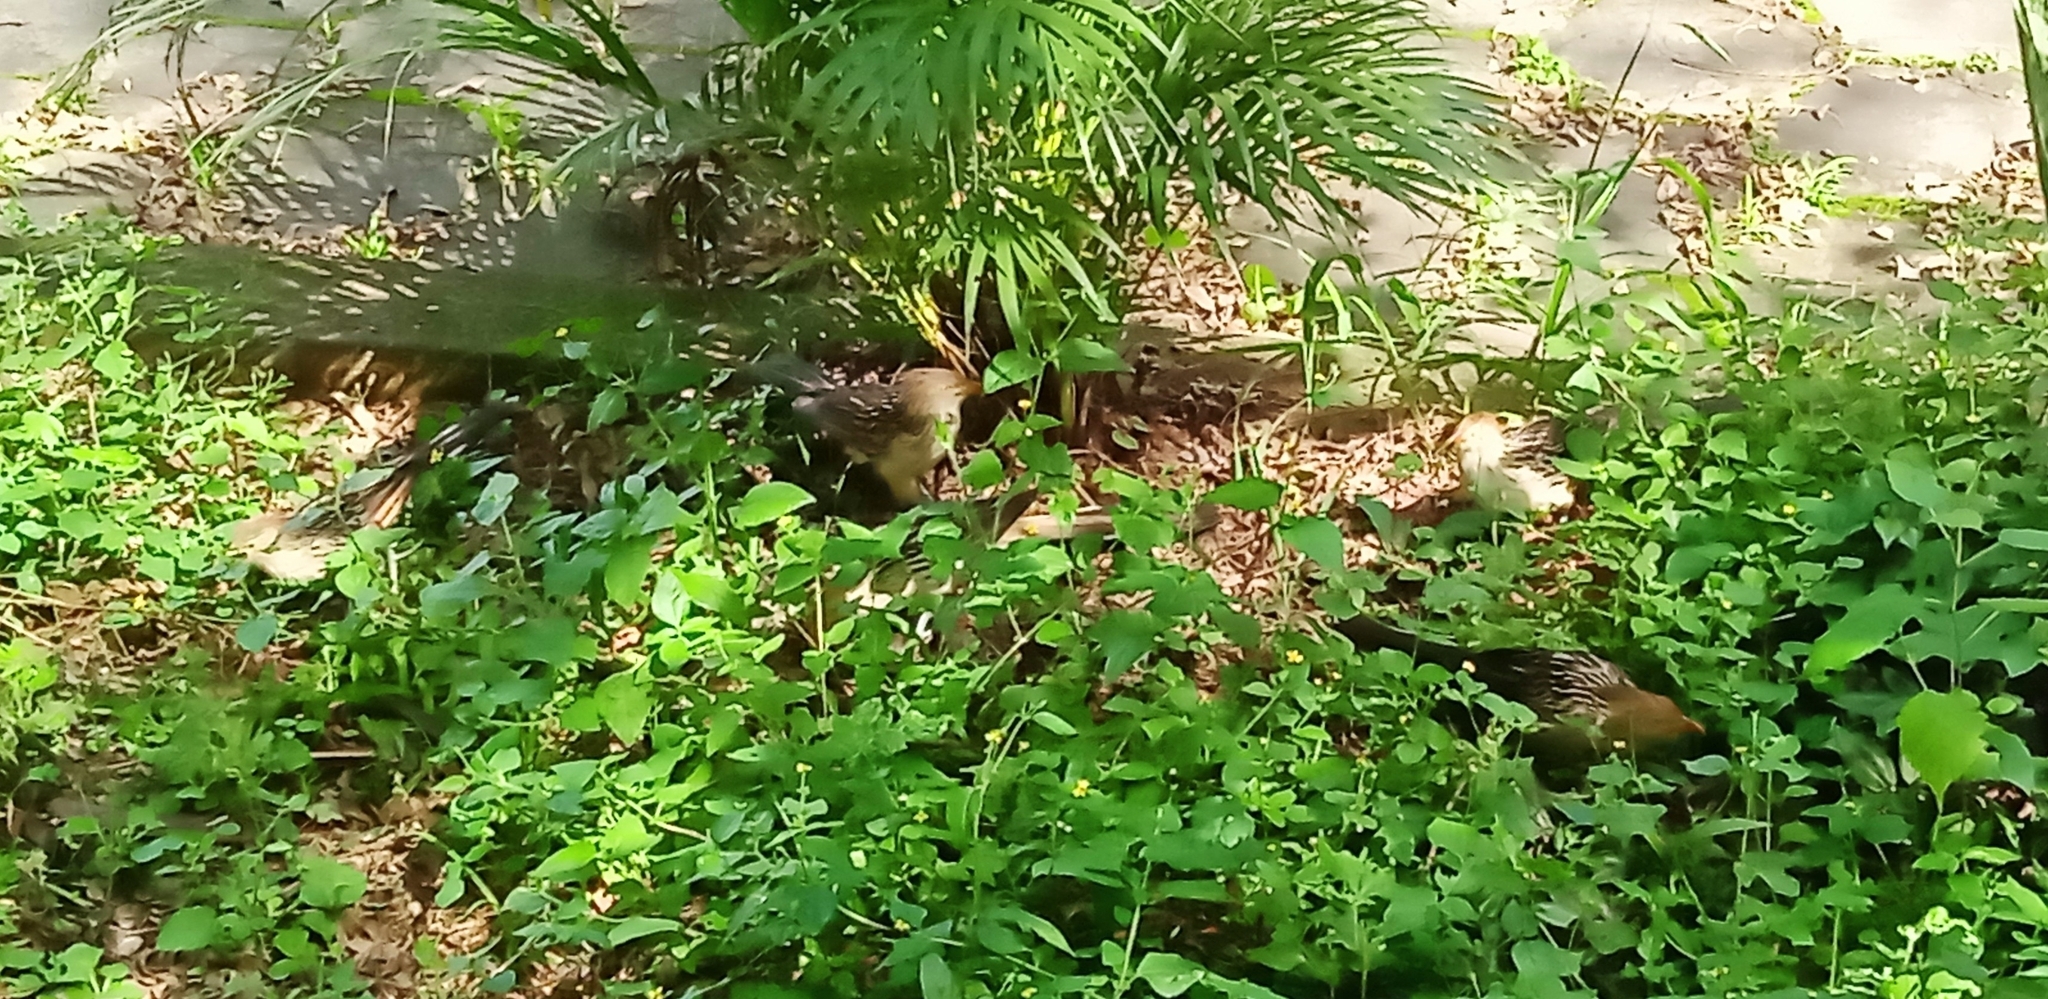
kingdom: Animalia
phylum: Chordata
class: Aves
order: Cuculiformes
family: Cuculidae
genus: Guira
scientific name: Guira guira
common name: Guira cuckoo
